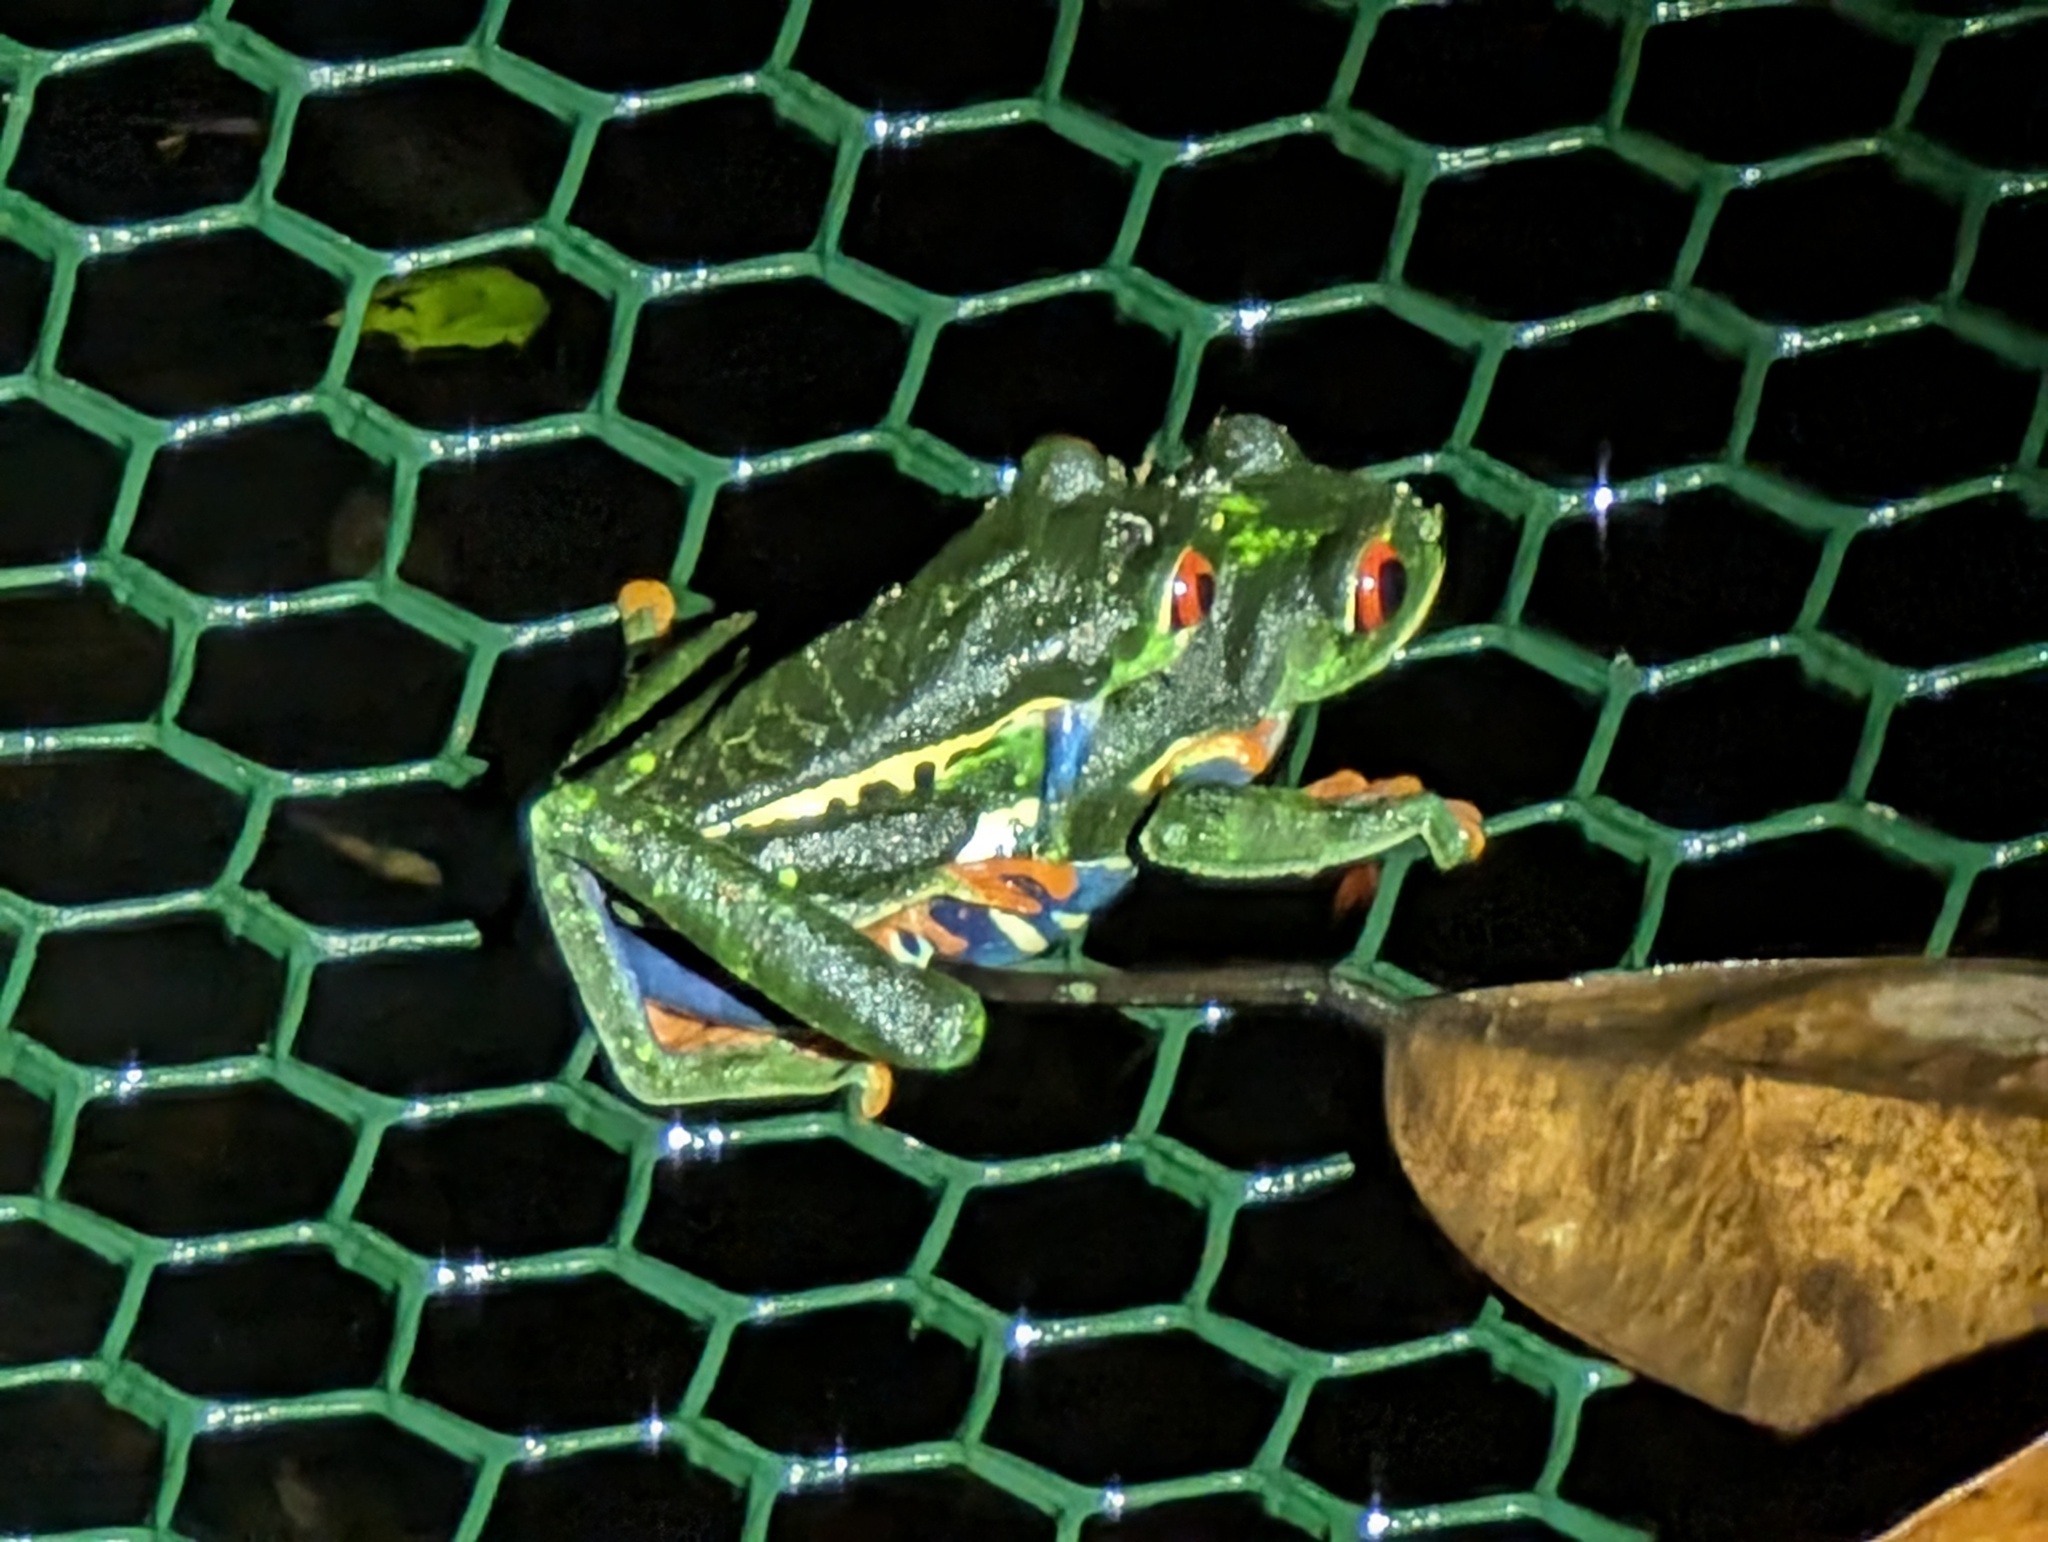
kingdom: Animalia
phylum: Chordata
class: Amphibia
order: Anura
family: Phyllomedusidae
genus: Agalychnis
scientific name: Agalychnis callidryas
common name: Red-eyed treefrog
